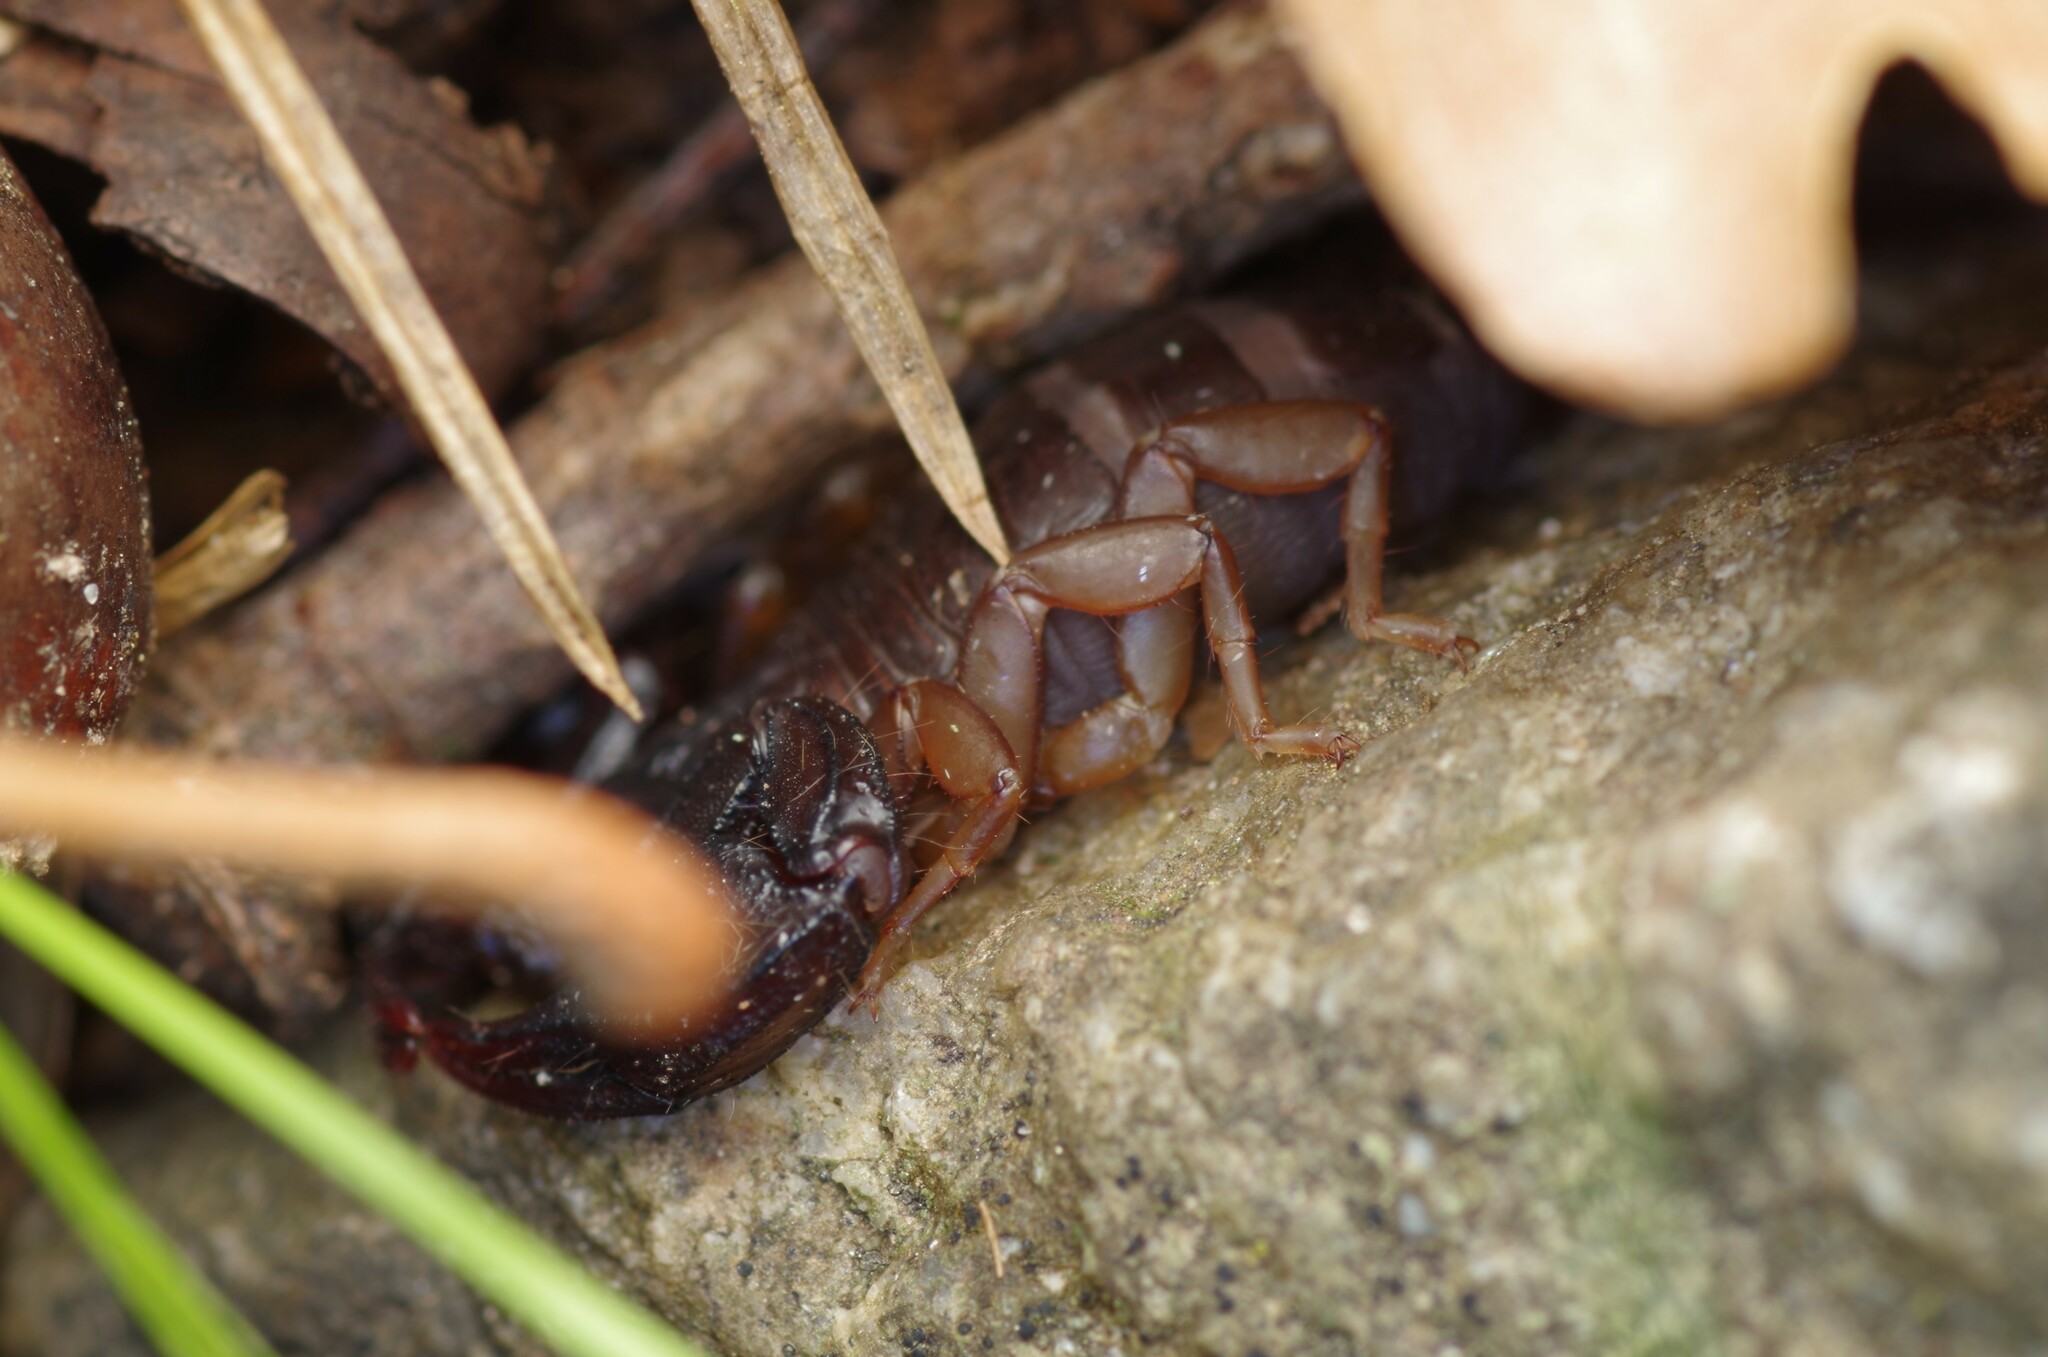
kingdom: Animalia
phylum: Arthropoda
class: Arachnida
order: Scorpiones
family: Euscorpiidae
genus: Euscorpius
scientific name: Euscorpius flavicaudis
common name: European yellow-tailed scorpion
